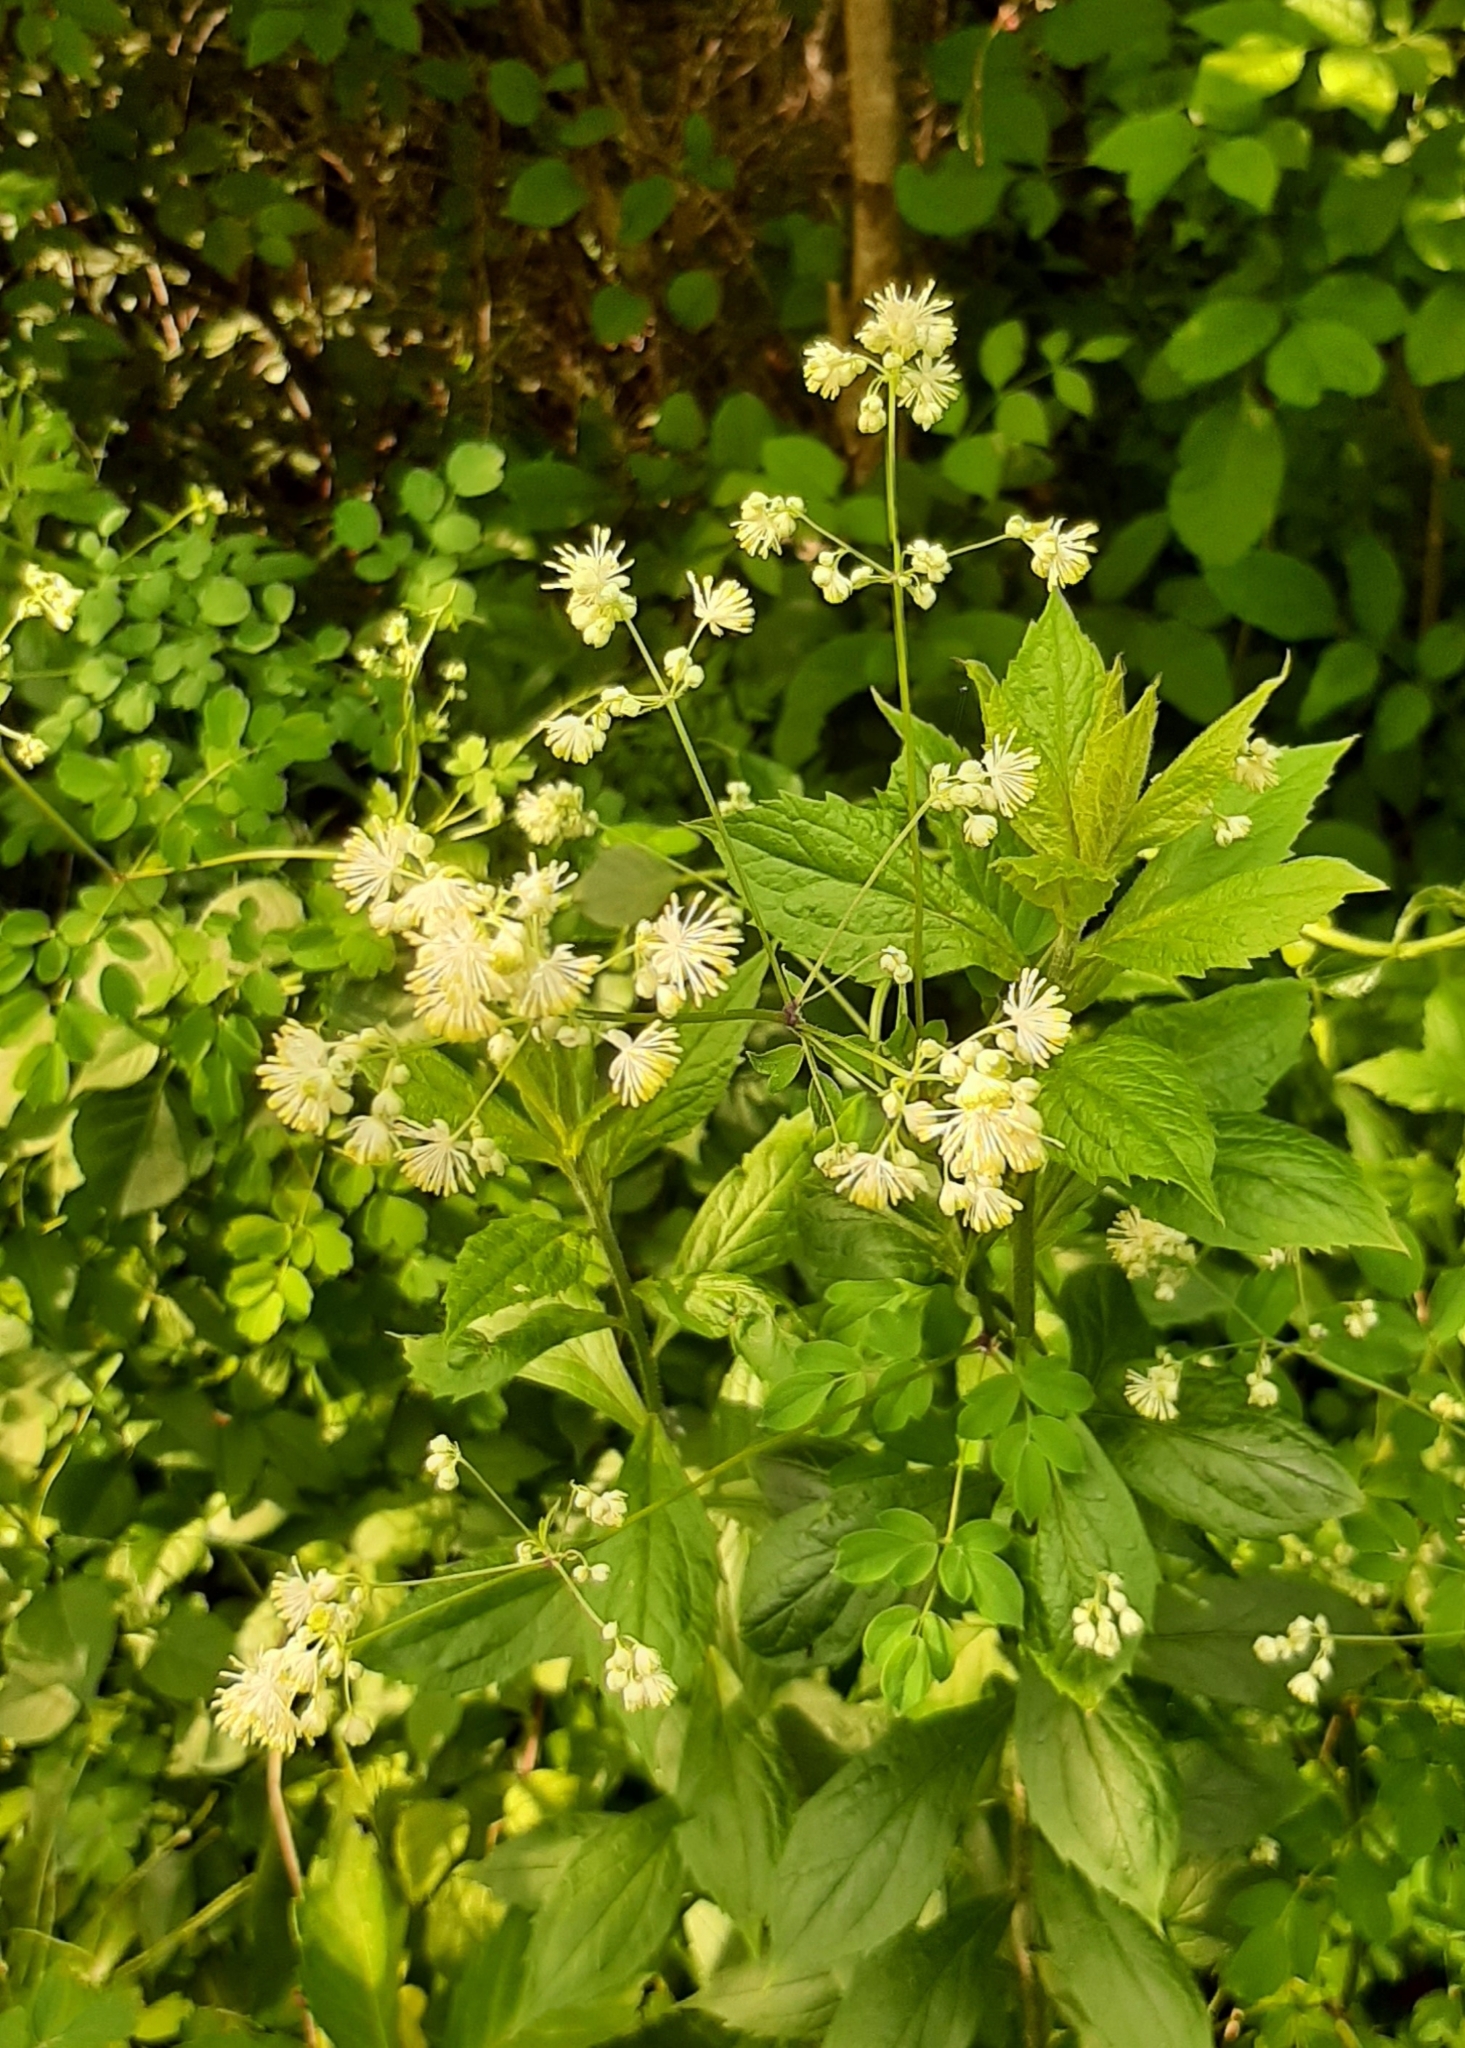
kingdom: Plantae
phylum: Tracheophyta
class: Magnoliopsida
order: Ranunculales
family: Ranunculaceae
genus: Thalictrum
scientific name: Thalictrum pubescens
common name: King-of-the-meadow
